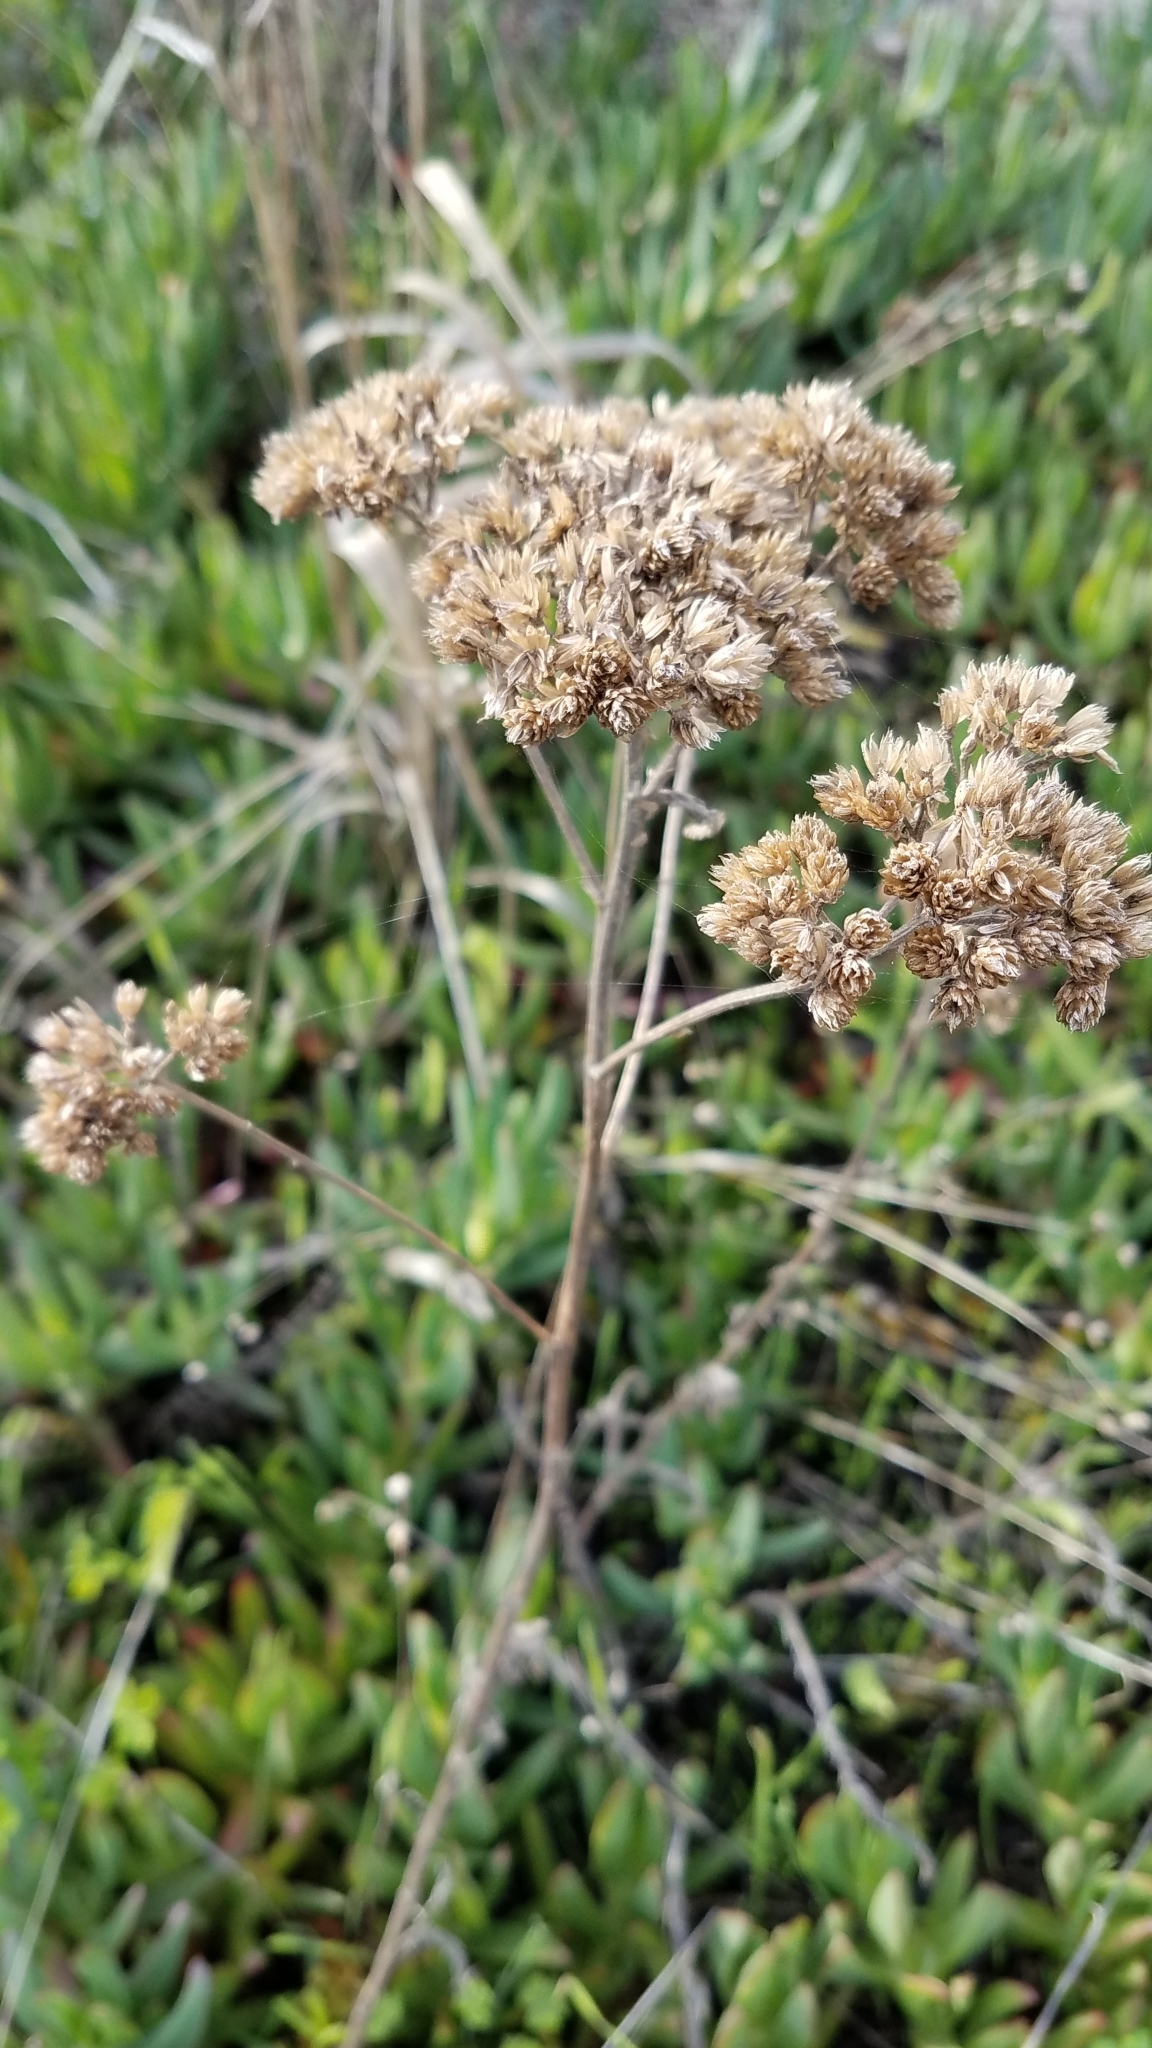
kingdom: Plantae
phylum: Tracheophyta
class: Magnoliopsida
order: Asterales
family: Asteraceae
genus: Achillea
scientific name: Achillea millefolium
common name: Yarrow
